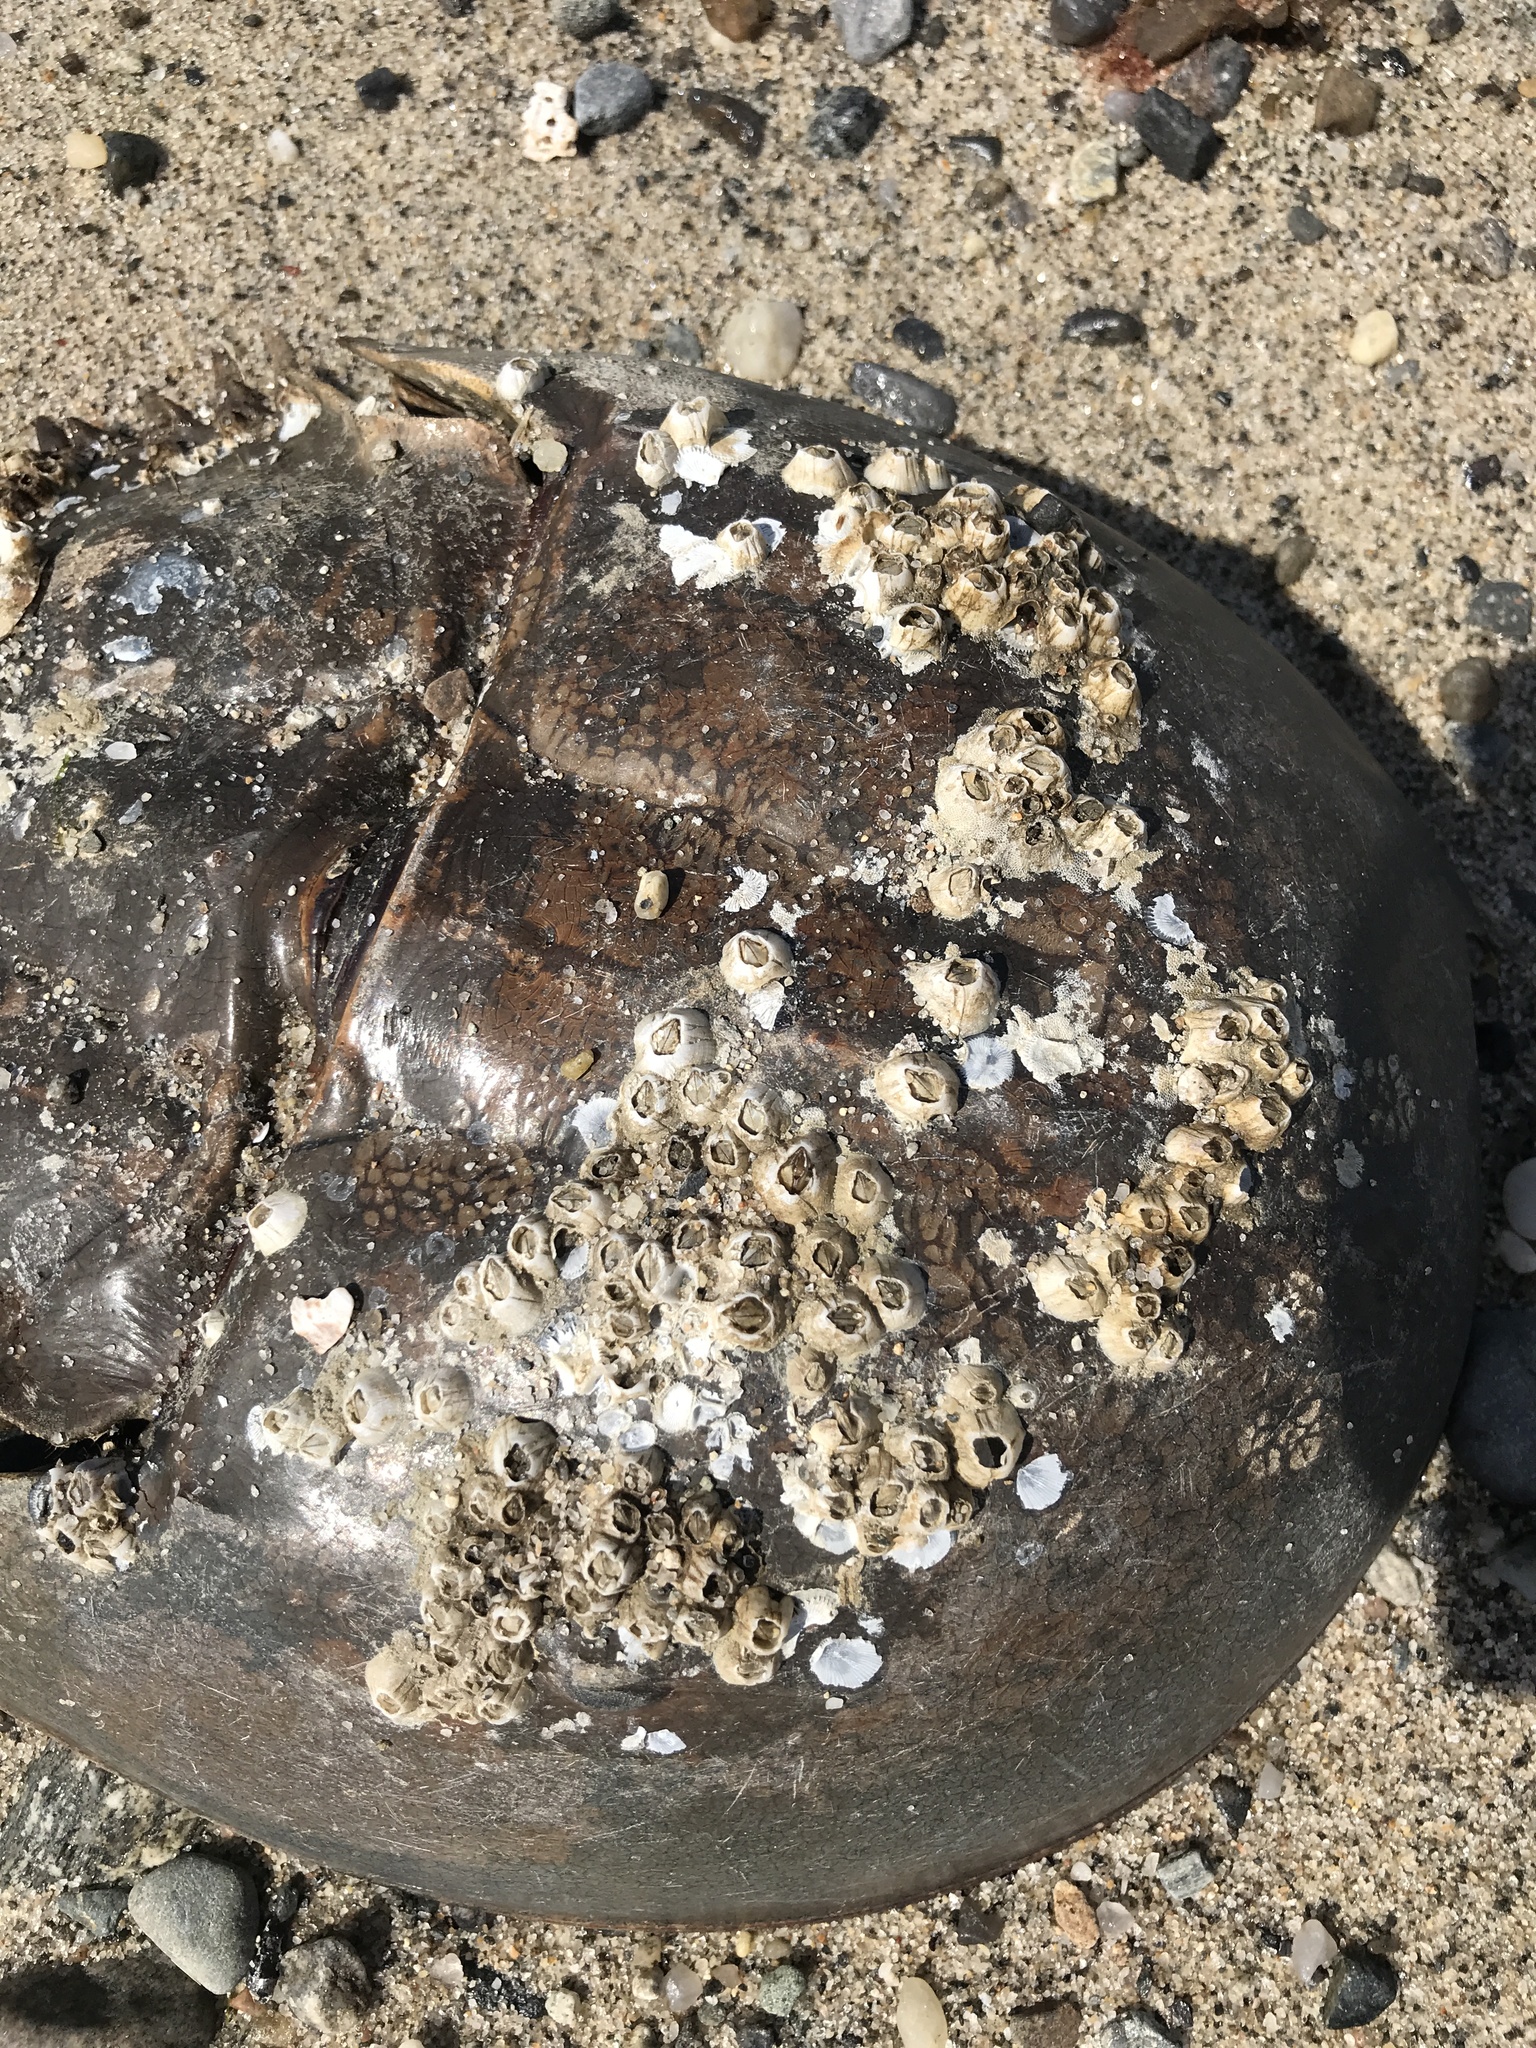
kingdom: Animalia
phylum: Arthropoda
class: Maxillopoda
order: Sessilia
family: Archaeobalanidae
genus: Semibalanus
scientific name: Semibalanus balanoides
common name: Acorn barnacle
